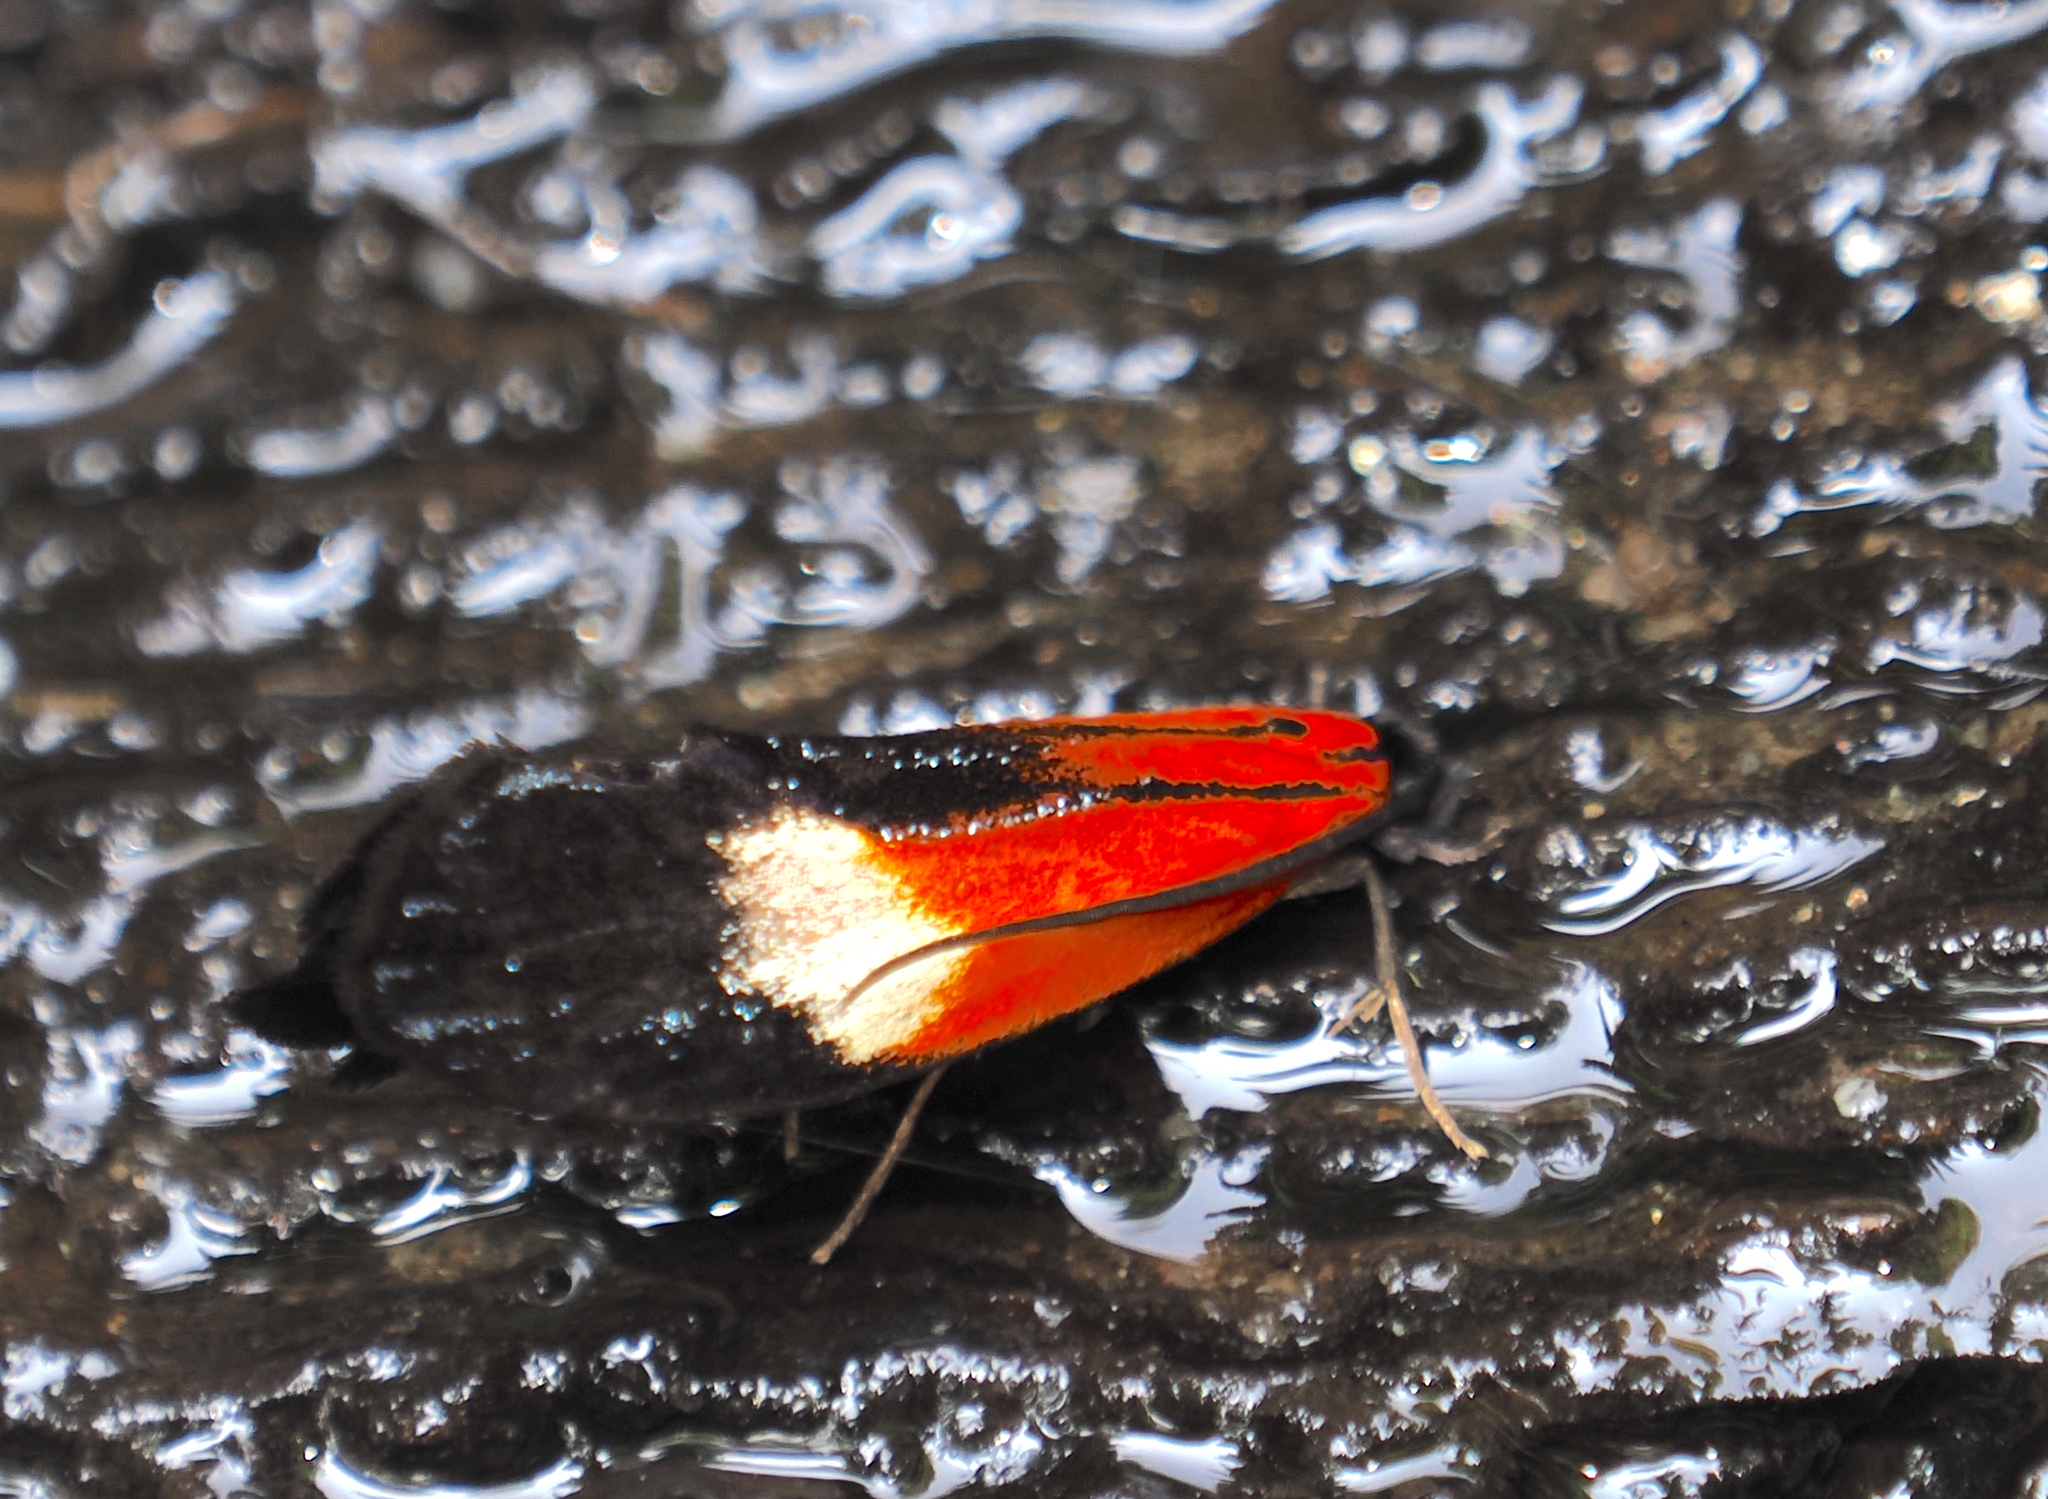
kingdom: Animalia
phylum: Arthropoda
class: Insecta
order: Lepidoptera
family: Tineidae
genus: Coryptilum
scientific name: Coryptilum rutilella
